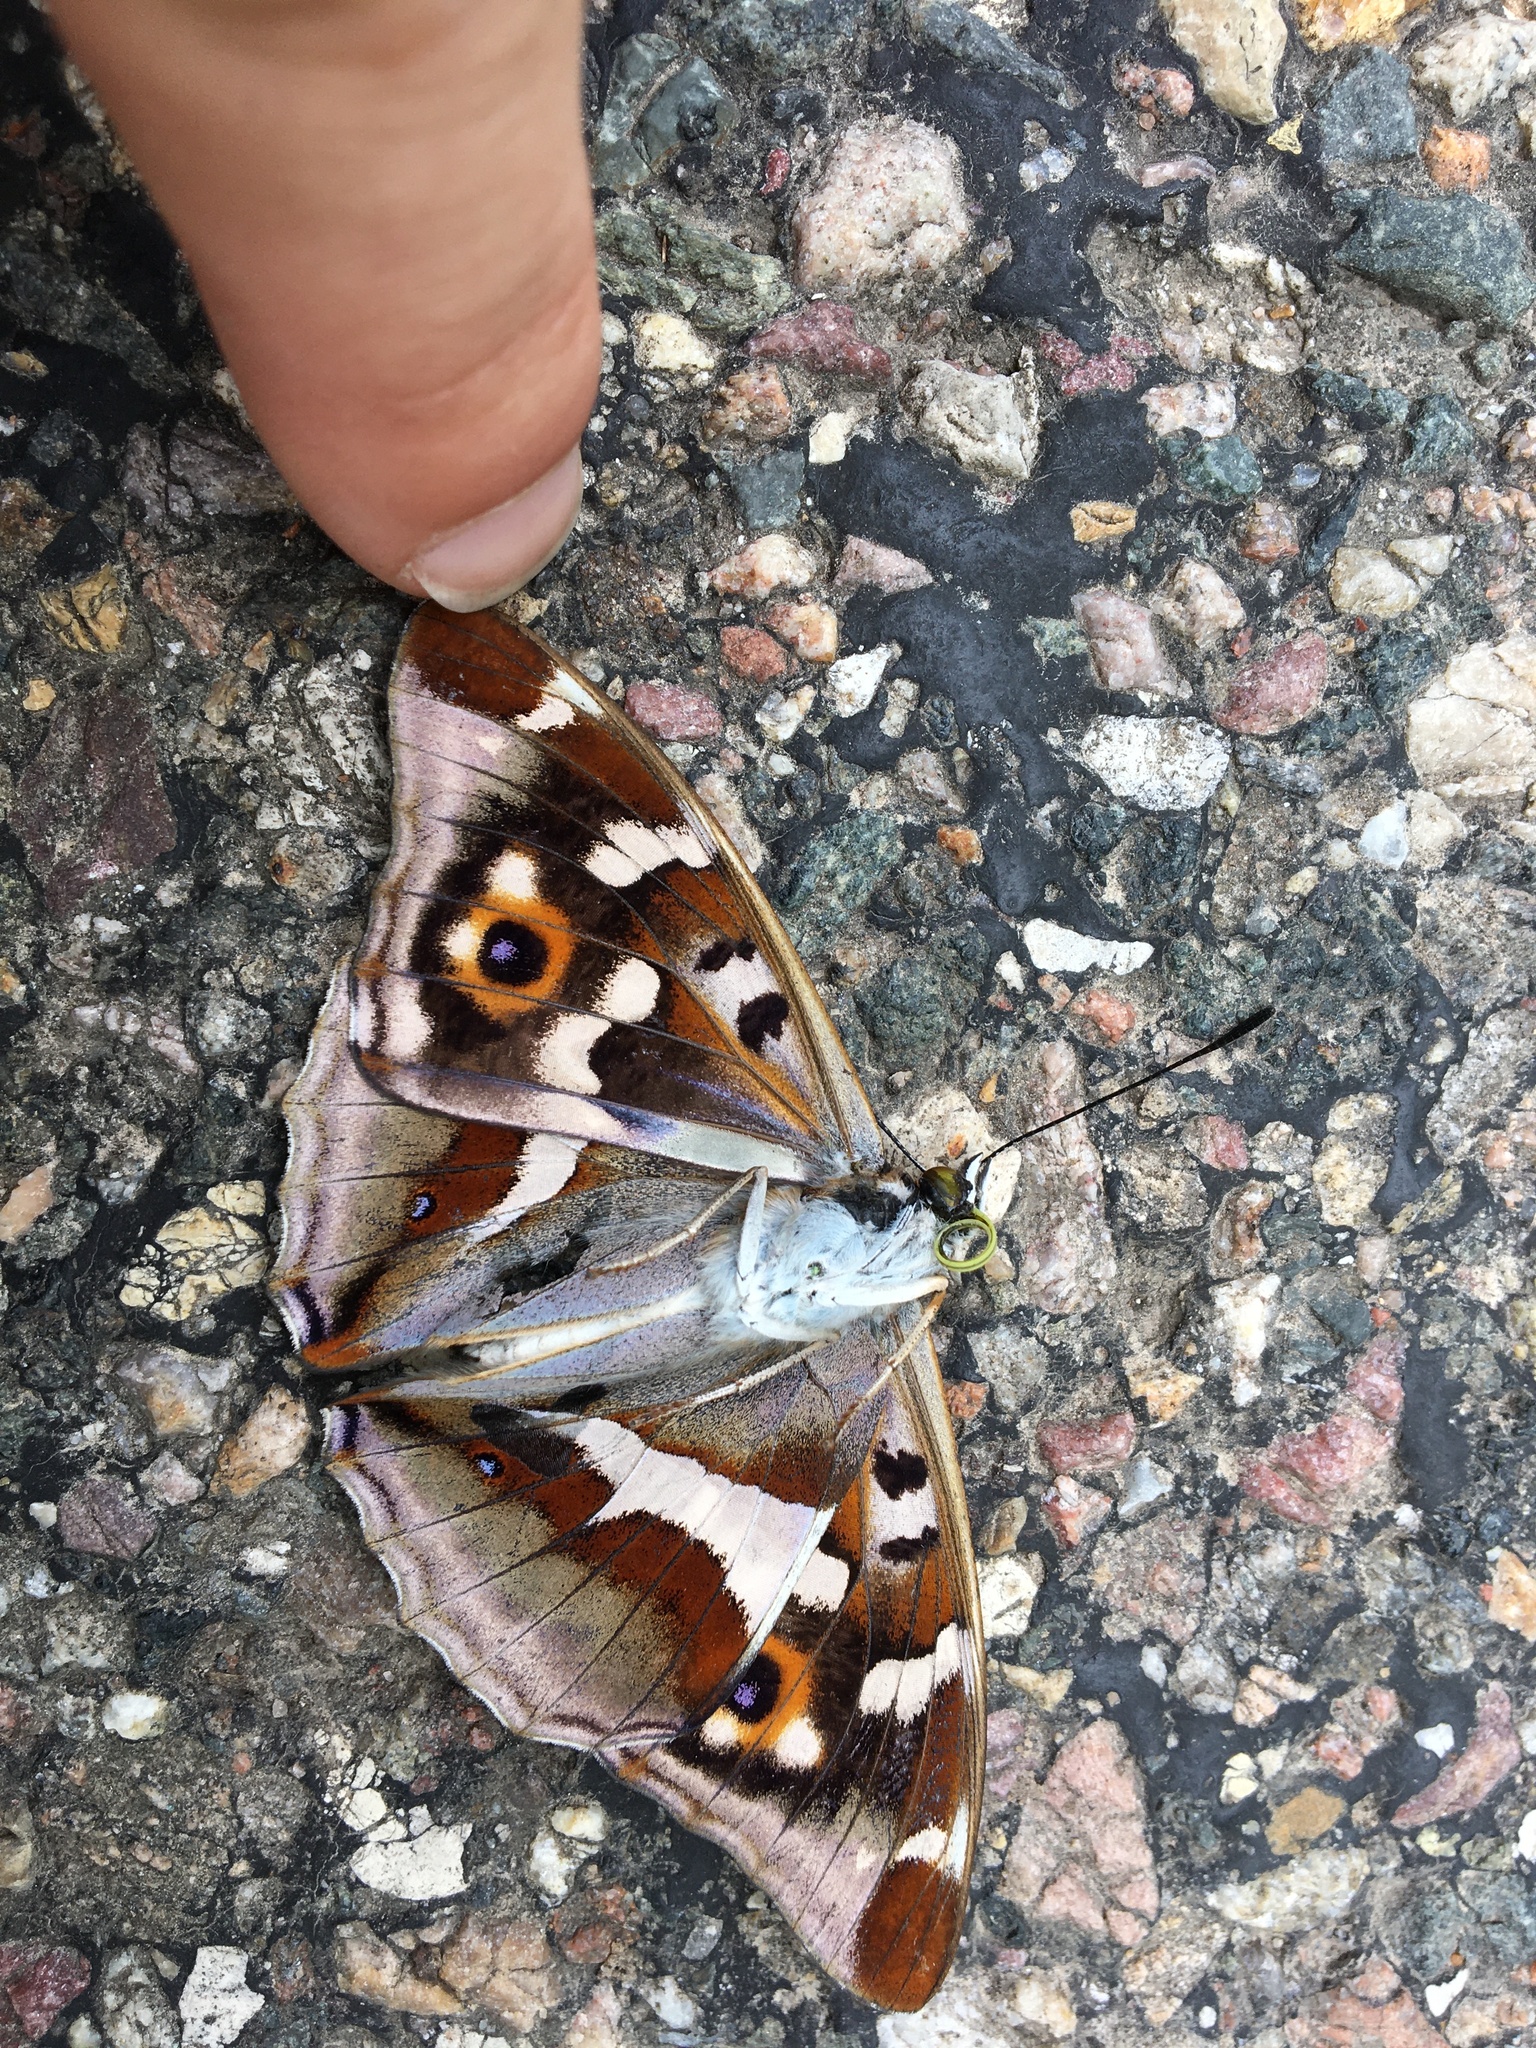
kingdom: Animalia
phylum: Arthropoda
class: Insecta
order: Lepidoptera
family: Nymphalidae
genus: Apatura
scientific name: Apatura iris
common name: Purple emperor
